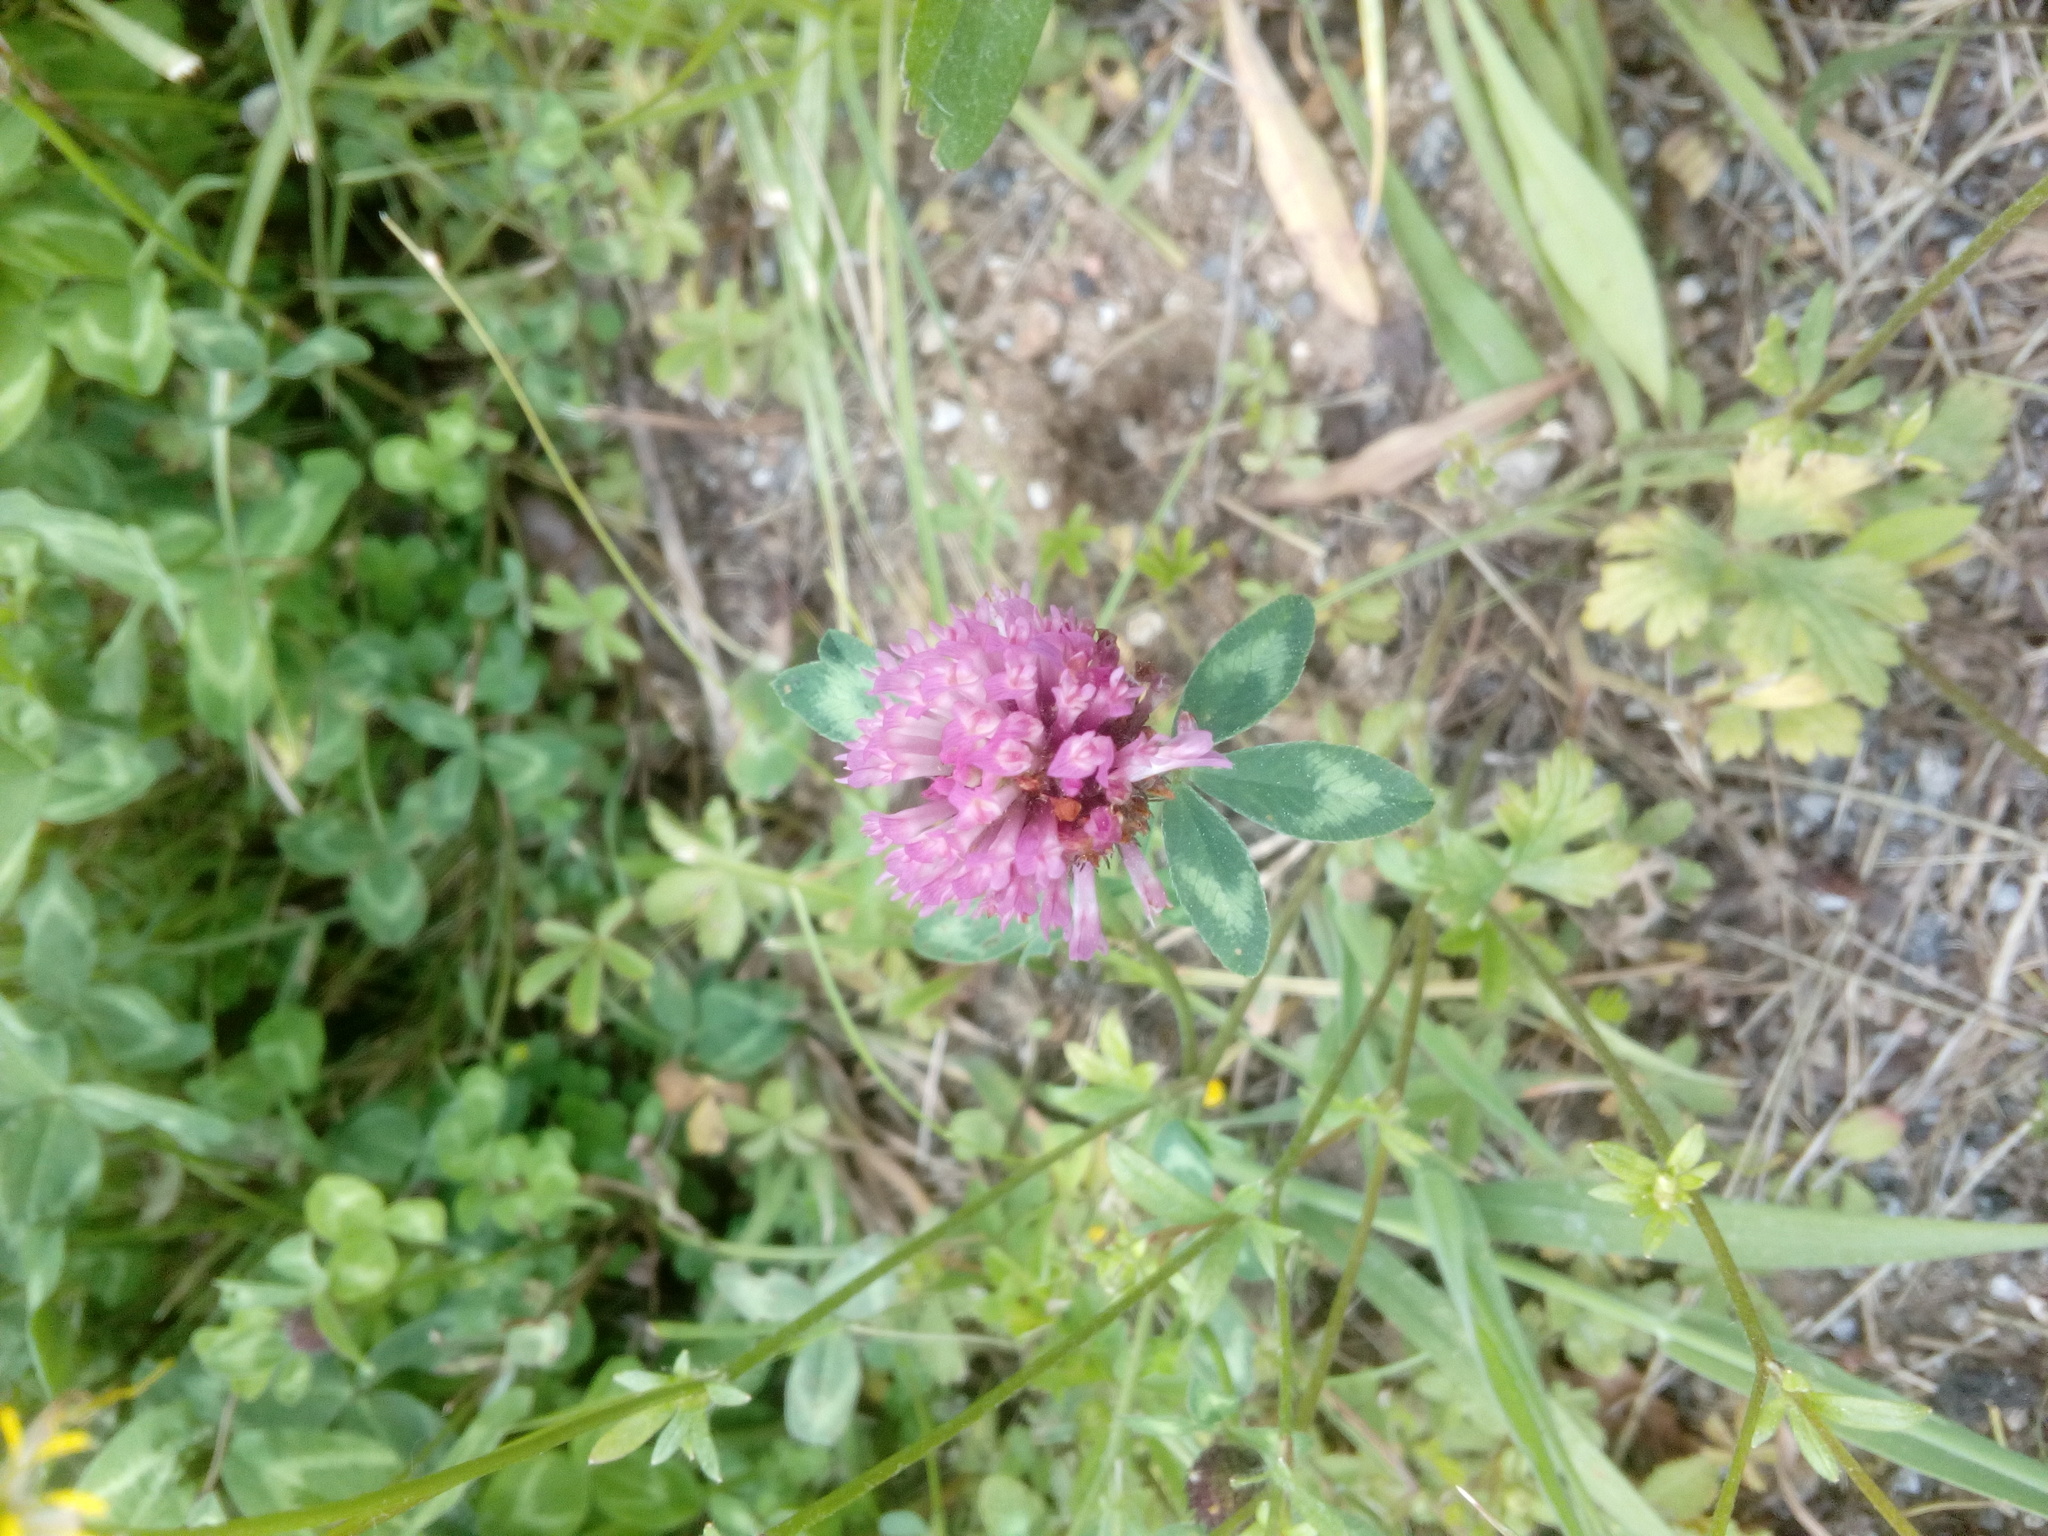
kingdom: Plantae
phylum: Tracheophyta
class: Magnoliopsida
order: Fabales
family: Fabaceae
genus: Trifolium
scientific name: Trifolium pratense
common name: Red clover
